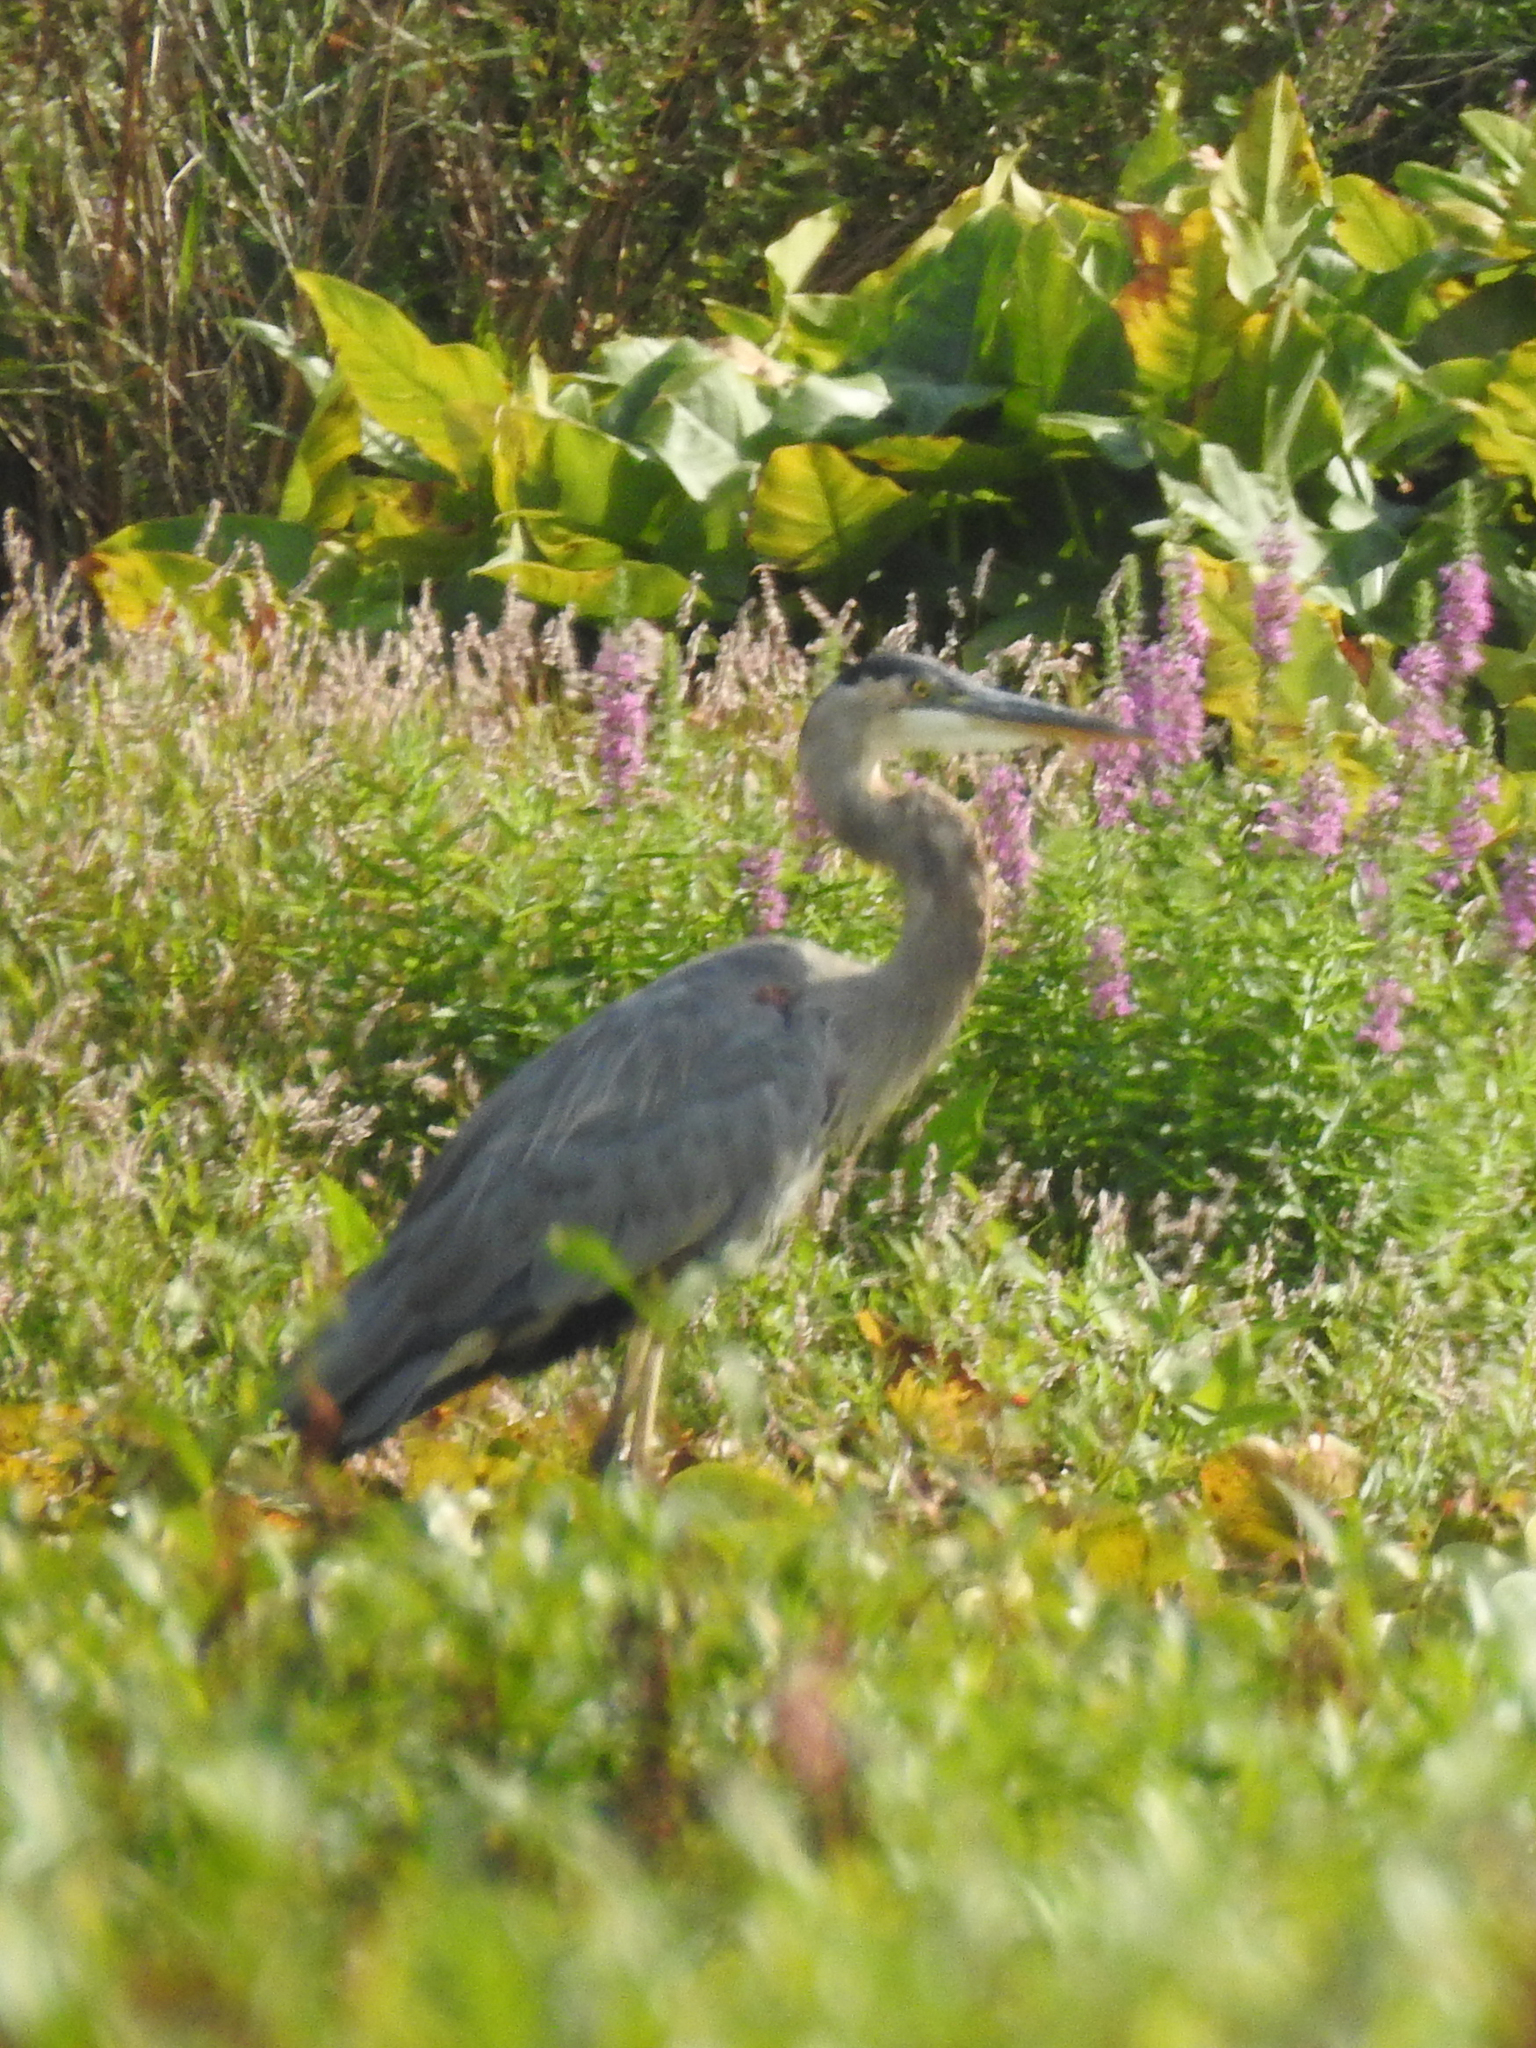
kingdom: Animalia
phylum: Chordata
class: Aves
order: Pelecaniformes
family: Ardeidae
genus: Ardea
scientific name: Ardea herodias
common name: Great blue heron
